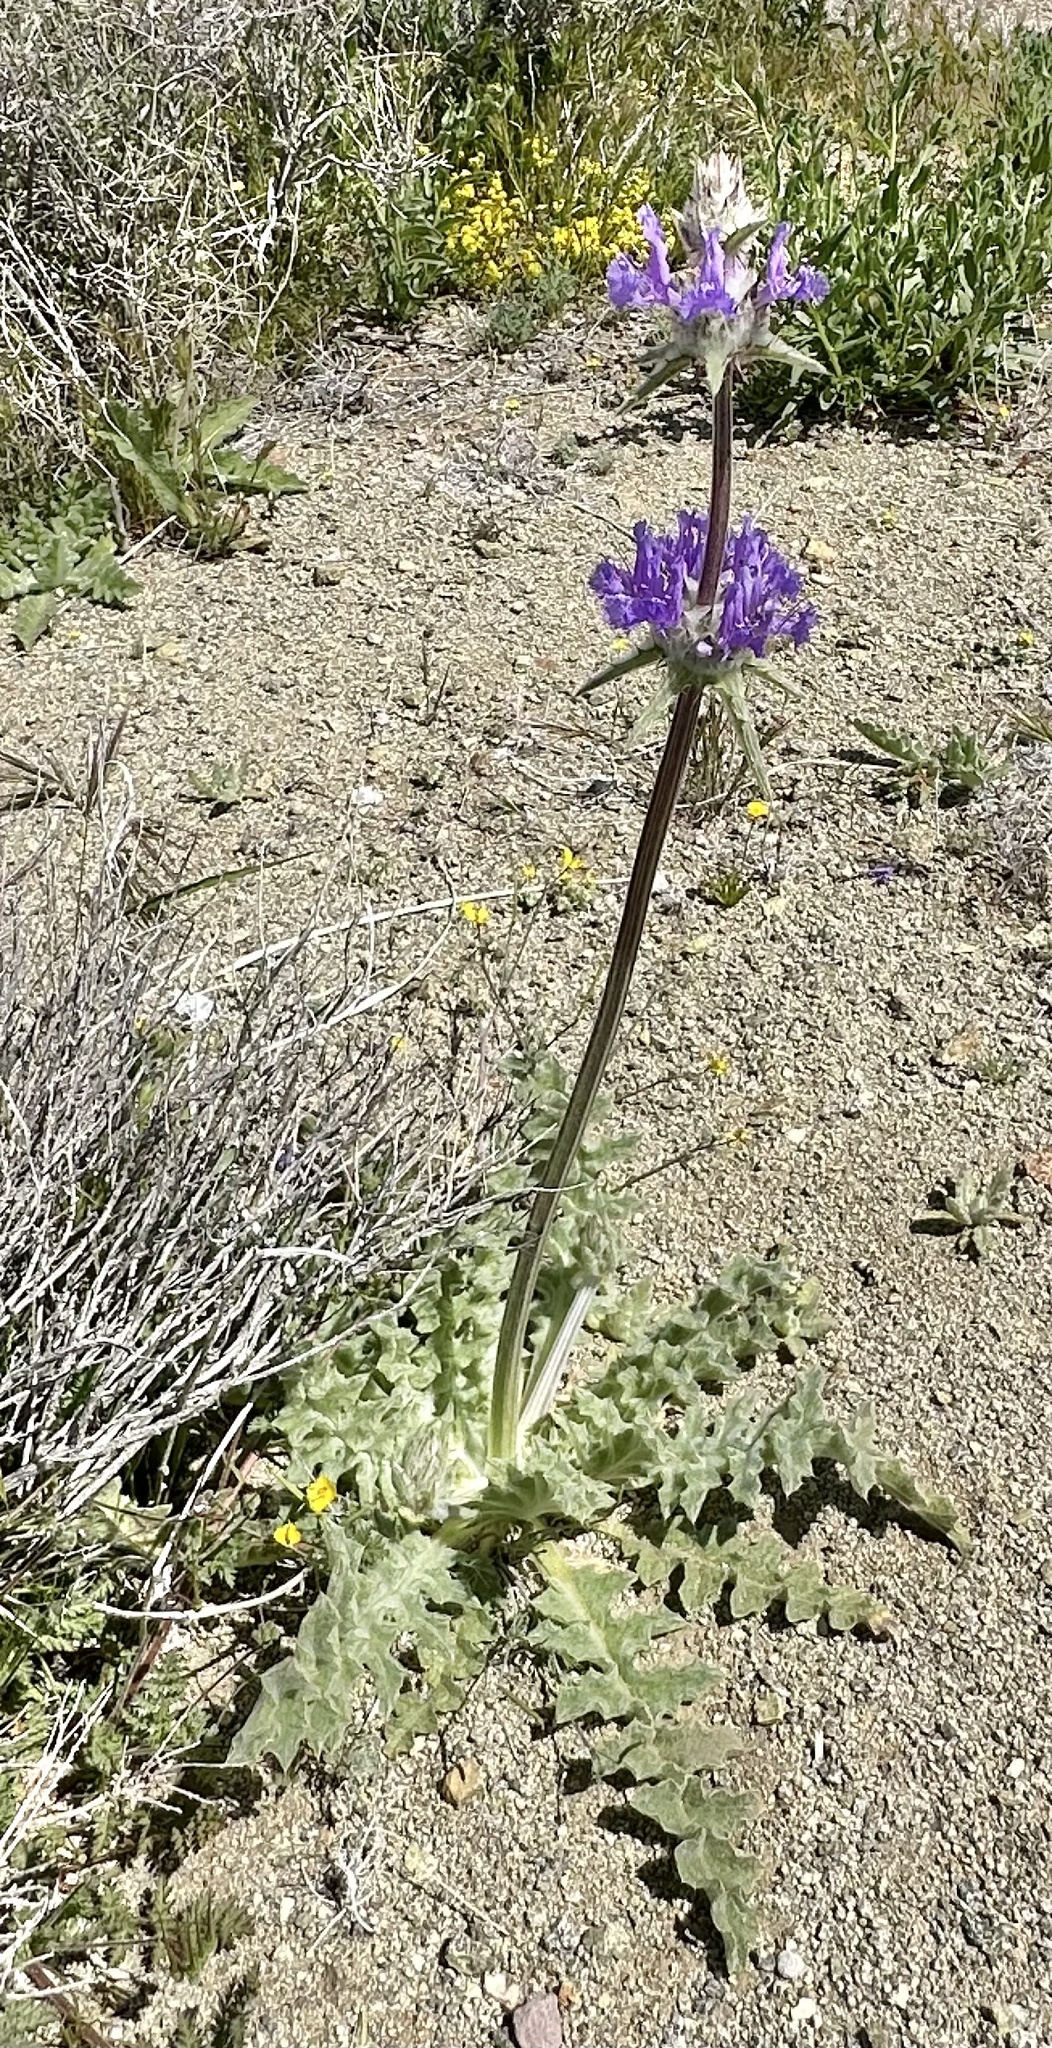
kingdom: Plantae
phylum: Tracheophyta
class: Magnoliopsida
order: Lamiales
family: Lamiaceae
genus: Salvia
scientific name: Salvia carduacea
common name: Thistle sage
